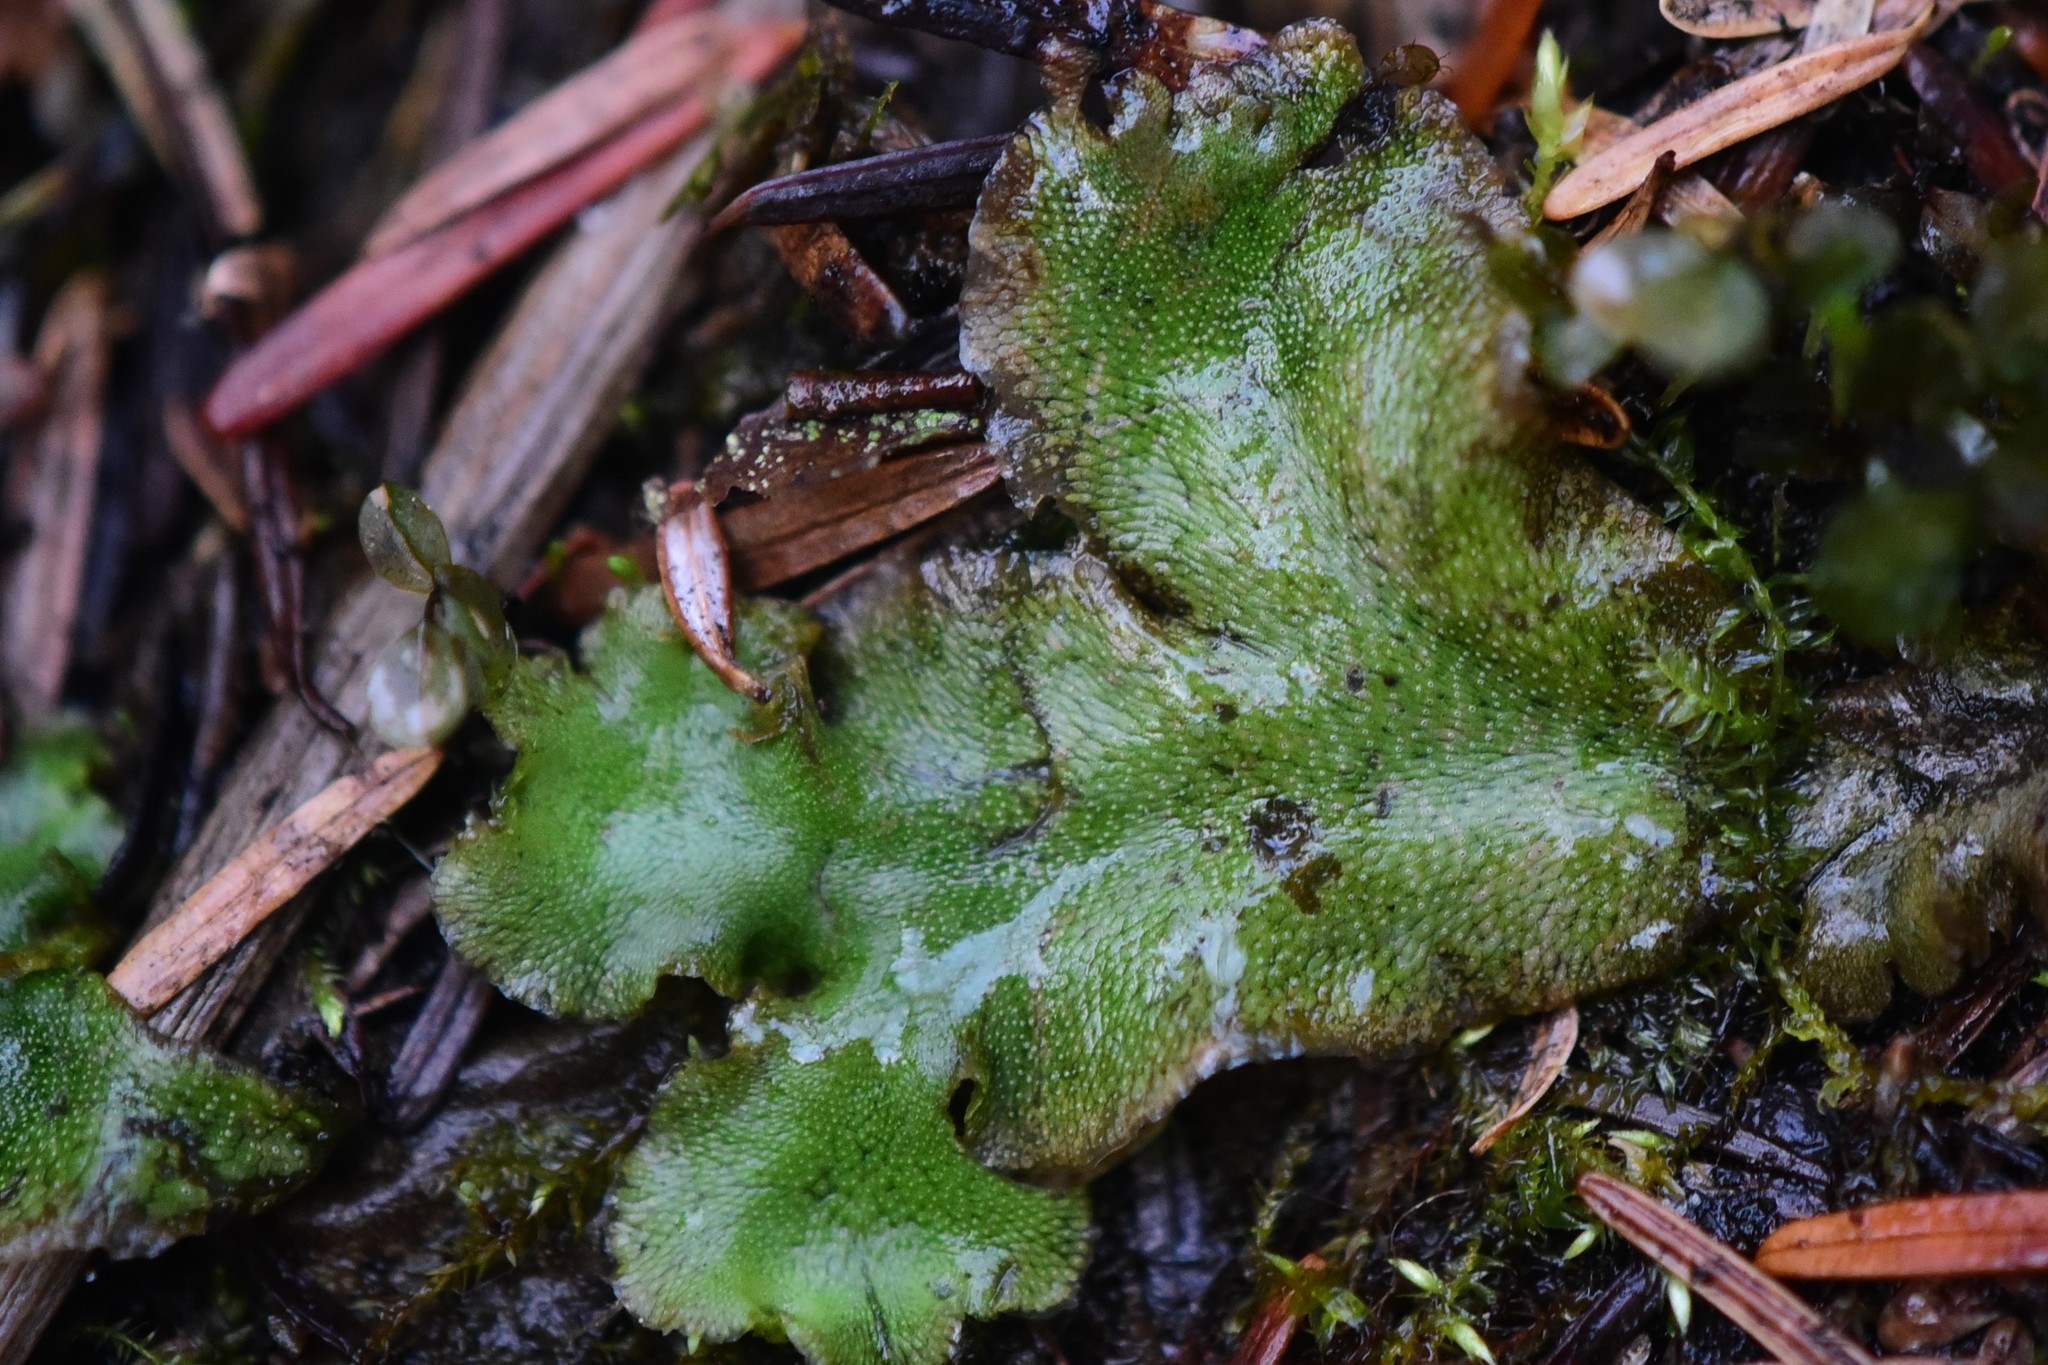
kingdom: Plantae
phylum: Marchantiophyta
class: Marchantiopsida
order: Marchantiales
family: Marchantiaceae
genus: Marchantia
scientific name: Marchantia polymorpha
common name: Common liverwort
